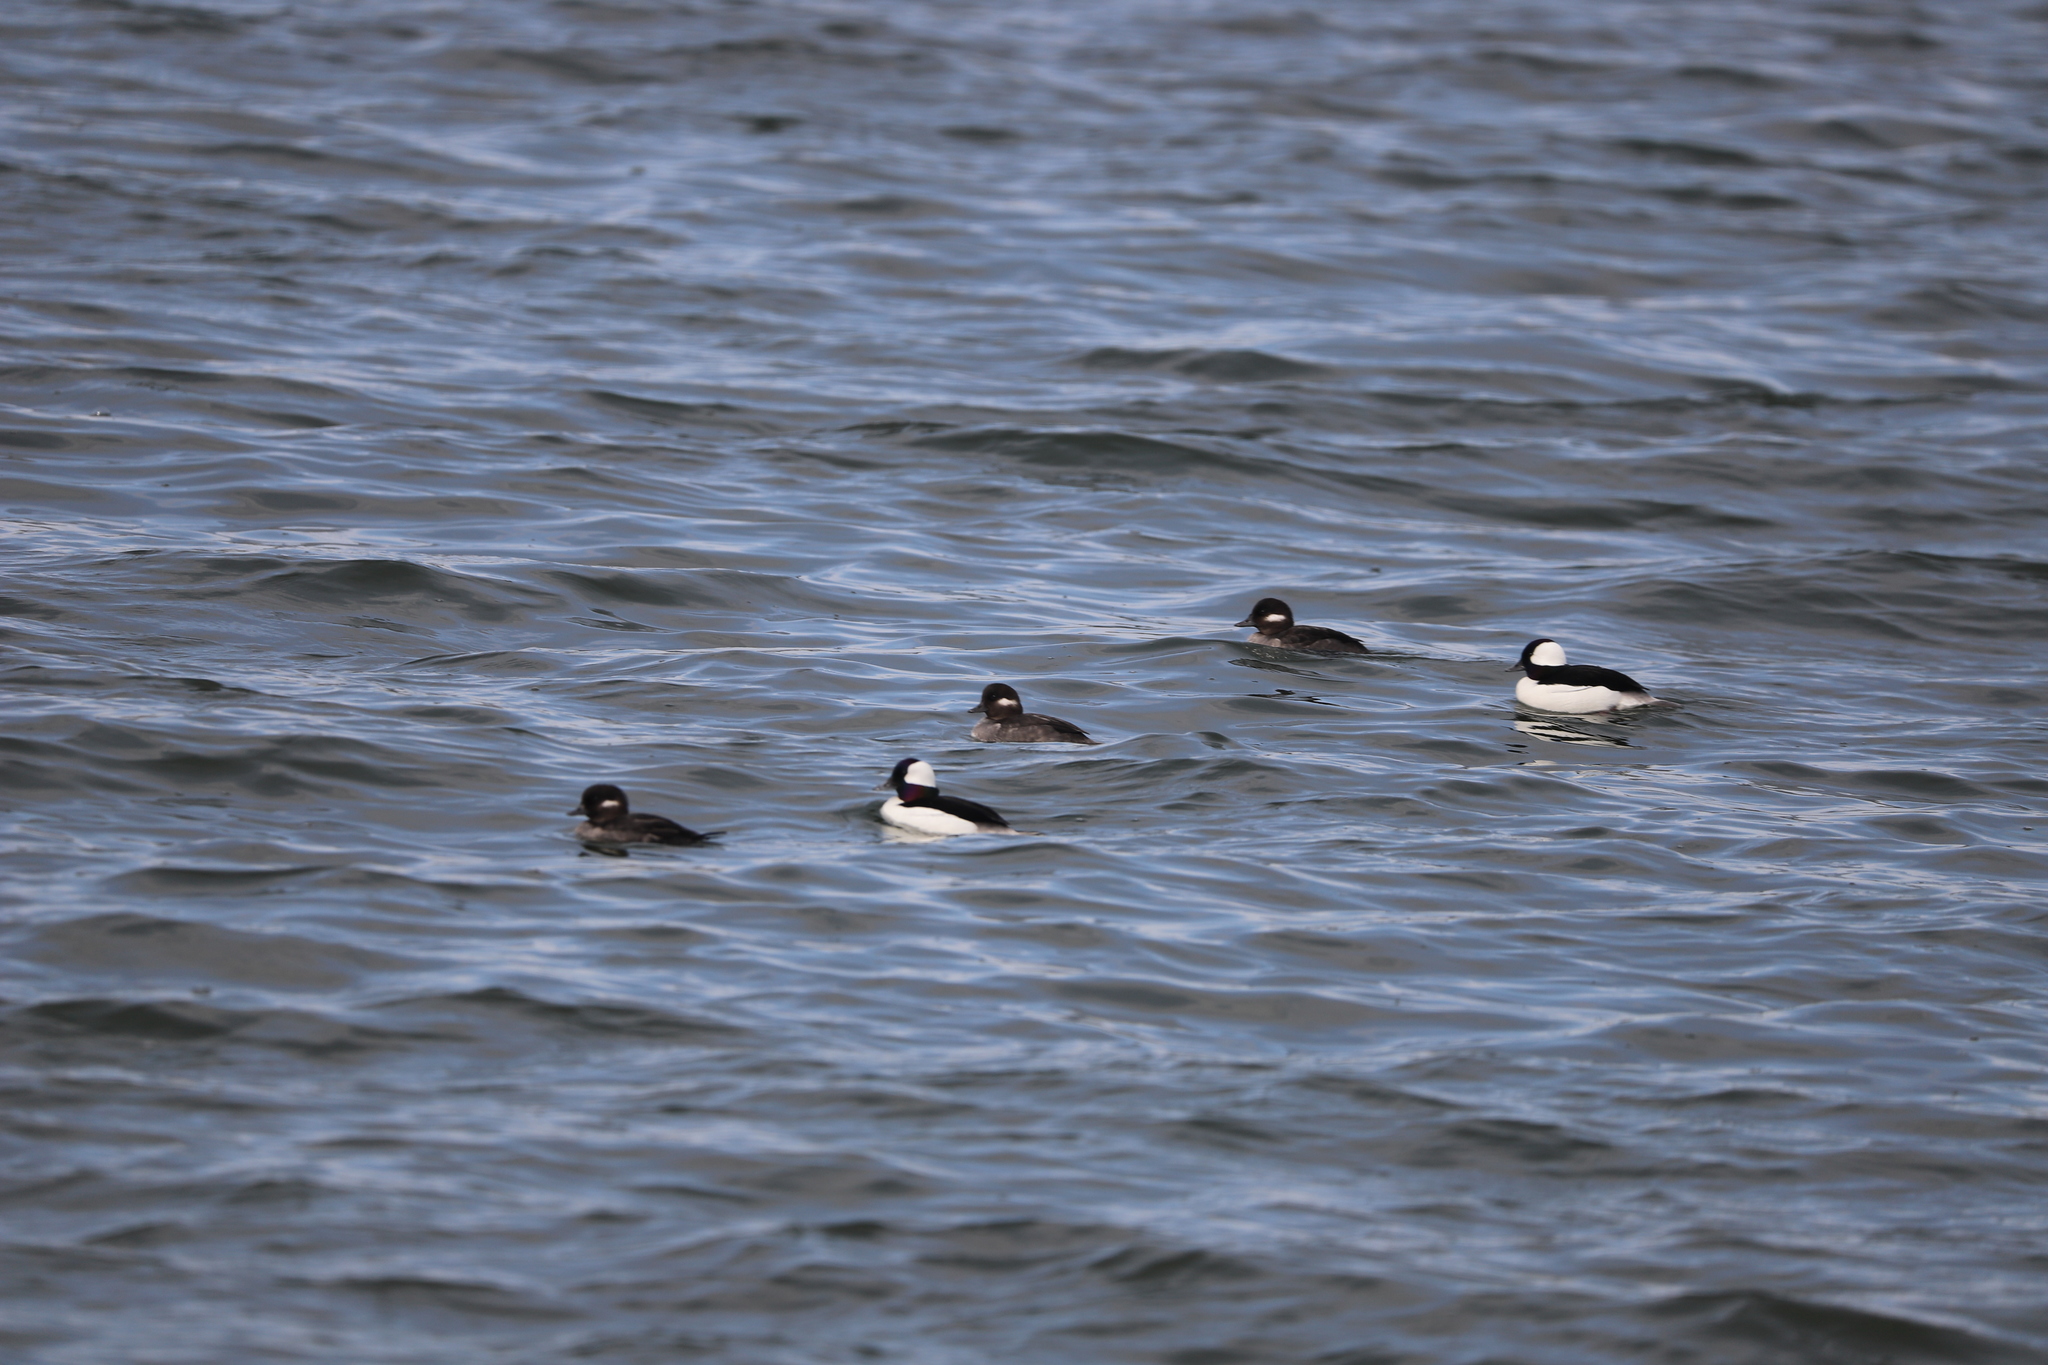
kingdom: Animalia
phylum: Chordata
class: Aves
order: Anseriformes
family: Anatidae
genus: Bucephala
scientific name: Bucephala albeola
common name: Bufflehead
